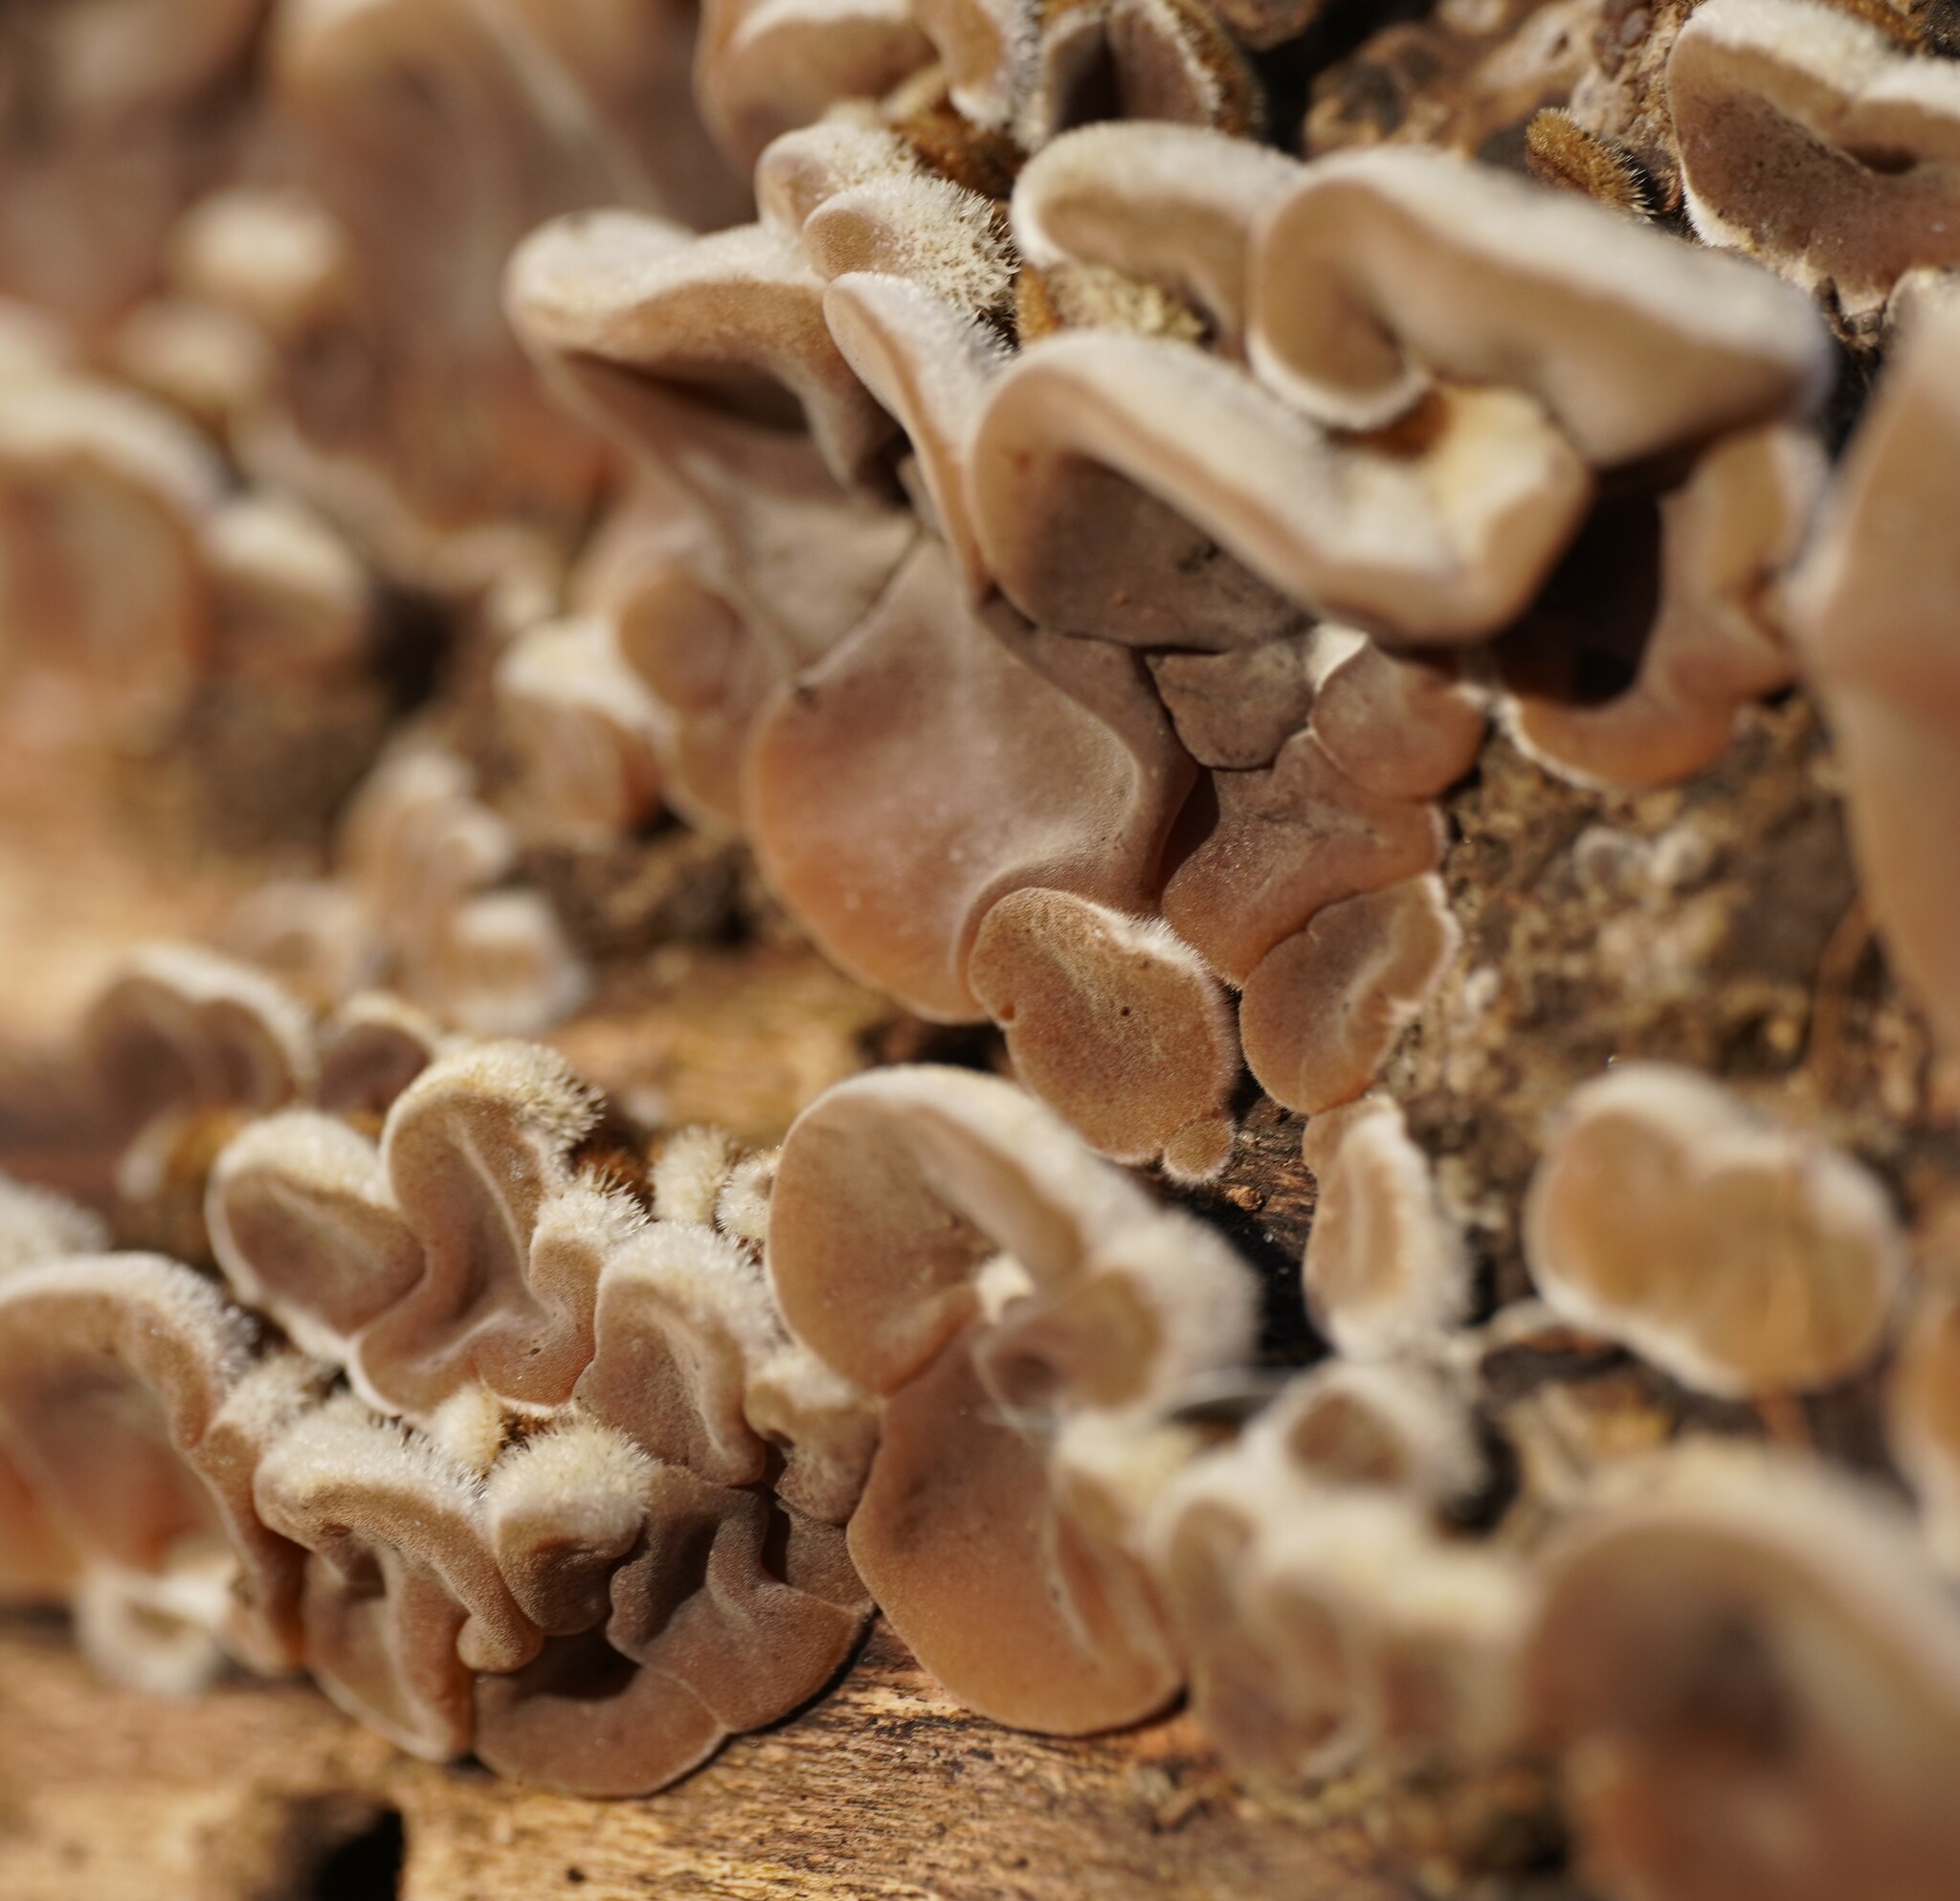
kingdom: Fungi
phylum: Basidiomycota
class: Agaricomycetes
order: Auriculariales
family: Auriculariaceae
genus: Auricularia
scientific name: Auricularia mesenterica
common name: Tripe fungus
